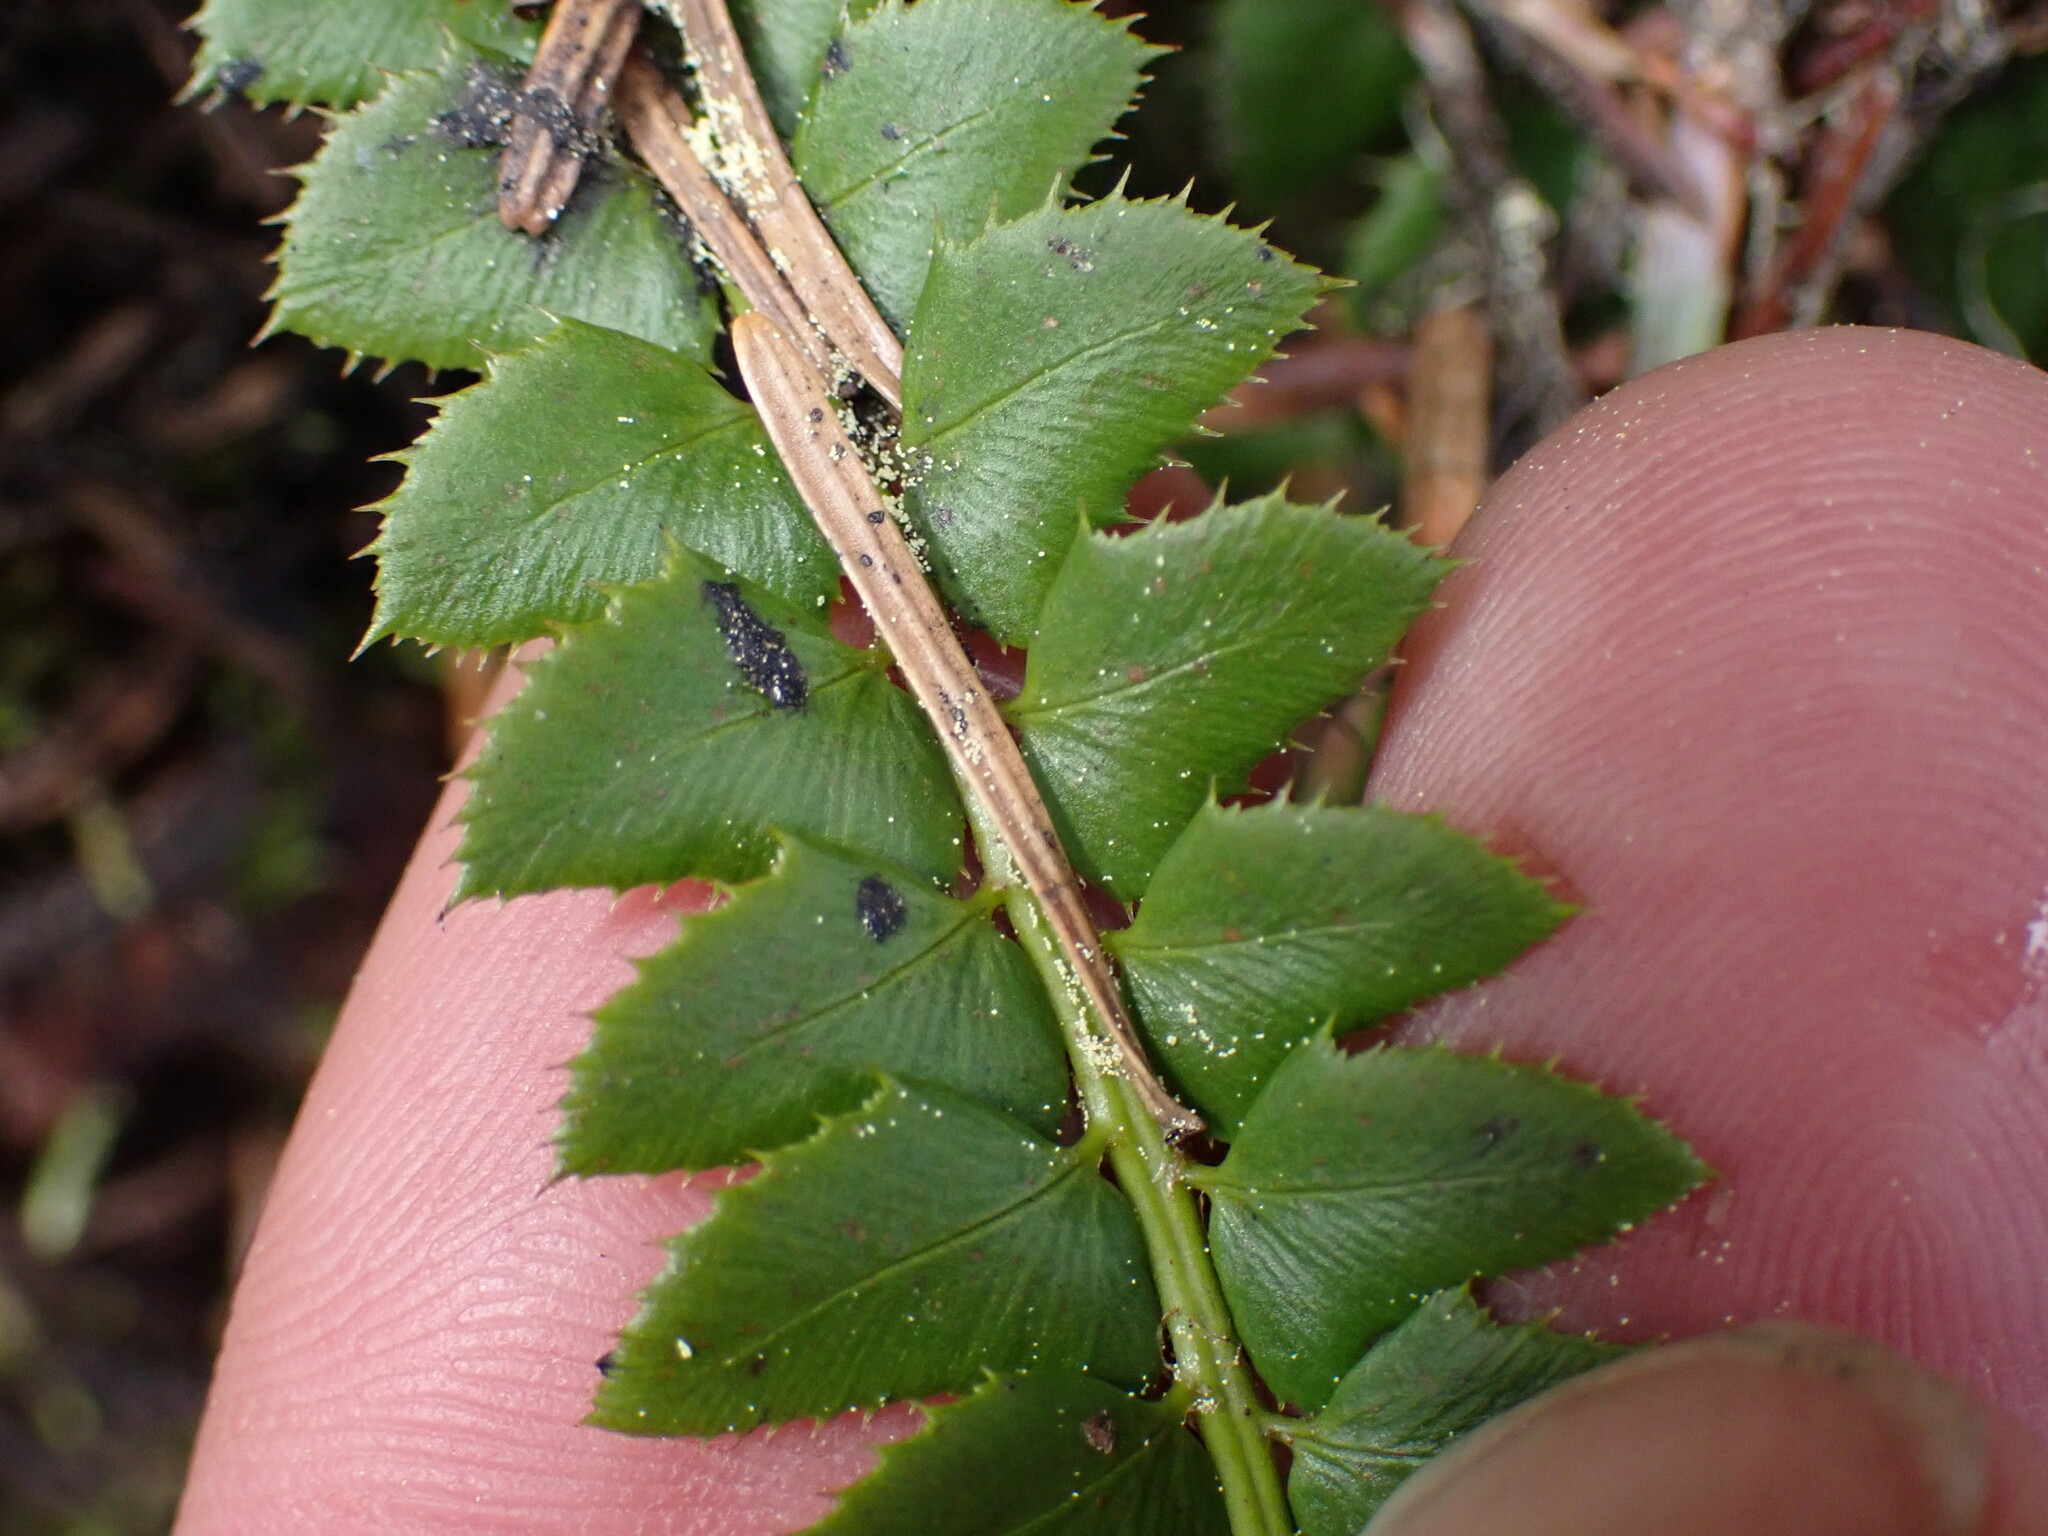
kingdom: Plantae
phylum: Tracheophyta
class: Polypodiopsida
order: Polypodiales
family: Dryopteridaceae
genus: Polystichum
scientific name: Polystichum lonchitis
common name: Holly fern
